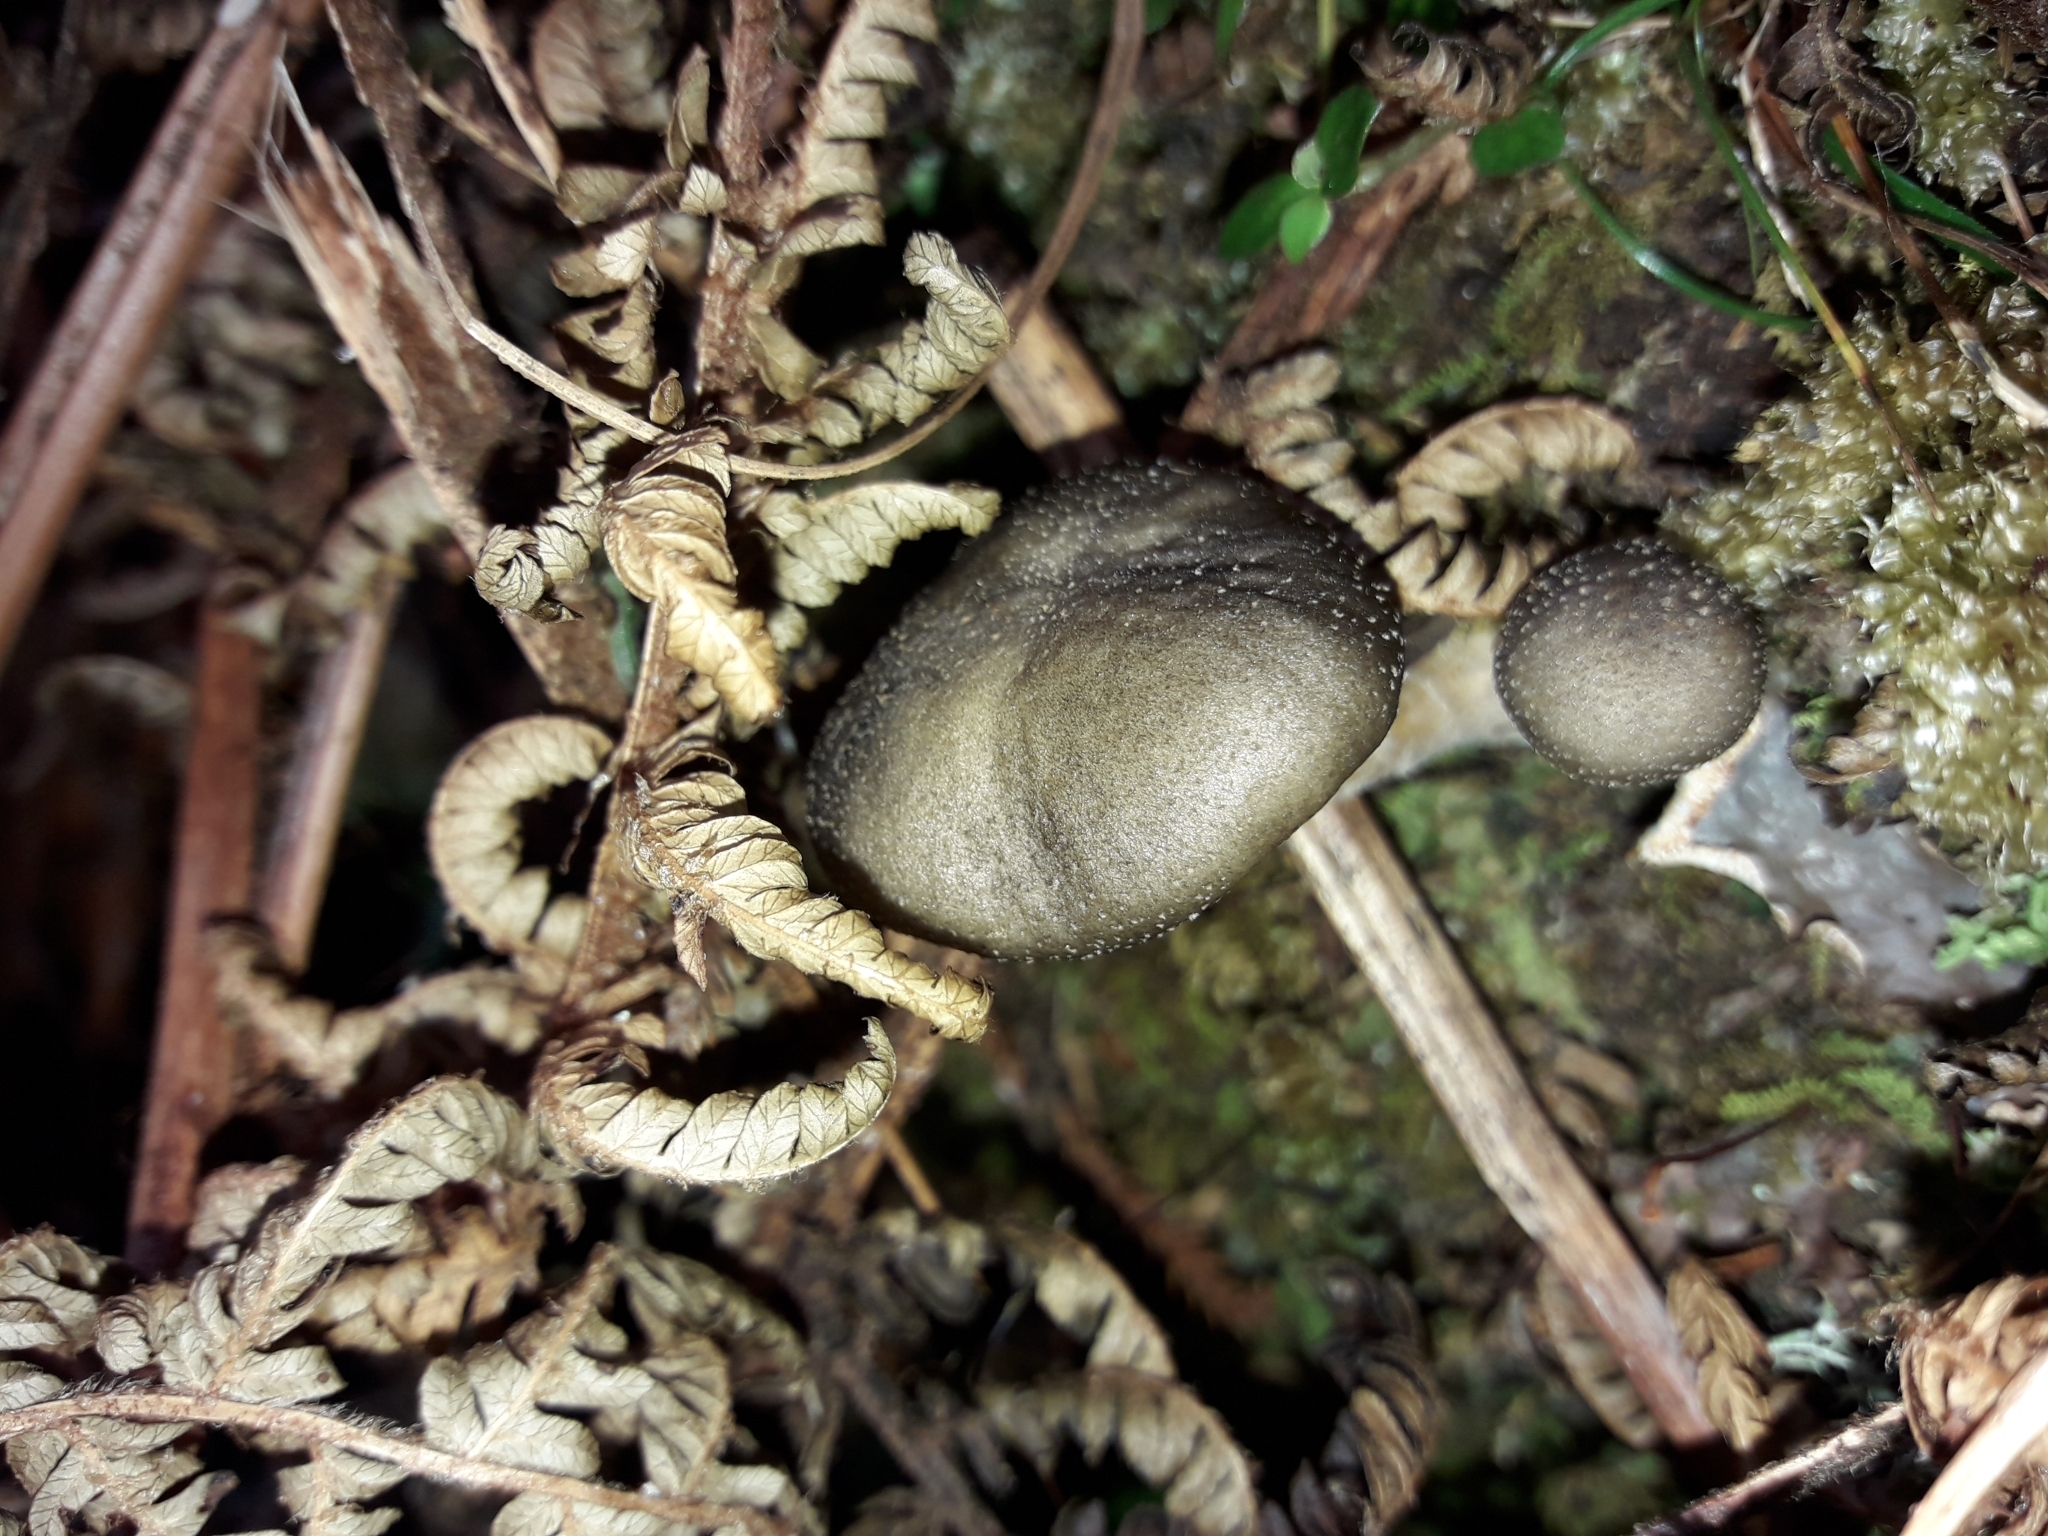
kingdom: Fungi
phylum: Basidiomycota
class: Agaricomycetes
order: Agaricales
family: Physalacriaceae
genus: Armillaria
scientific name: Armillaria novae-zelandiae
